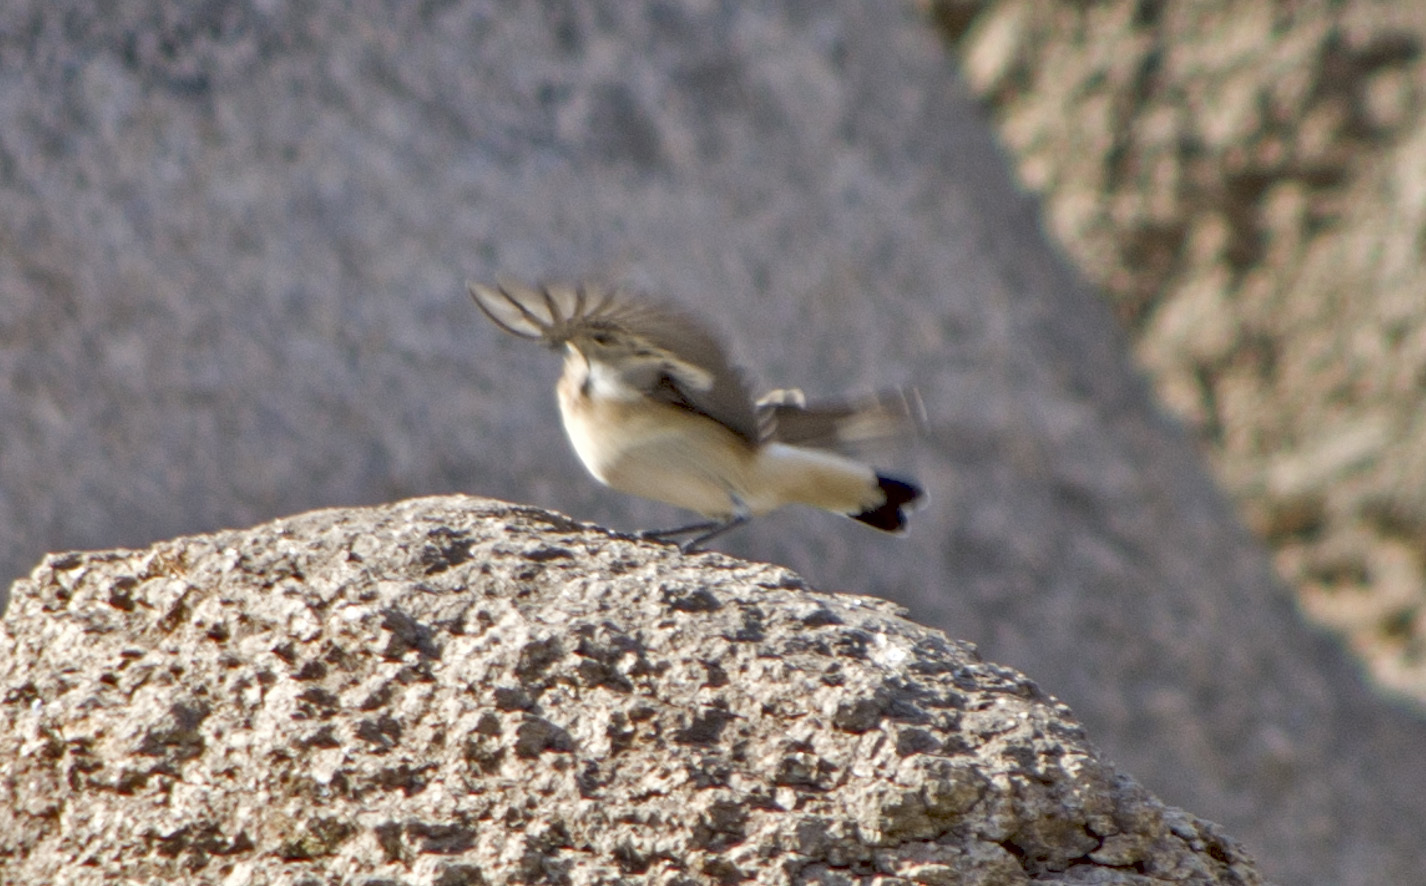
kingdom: Animalia
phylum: Chordata
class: Aves
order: Passeriformes
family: Muscicapidae
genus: Oenanthe
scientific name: Oenanthe oenanthe
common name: Northern wheatear
